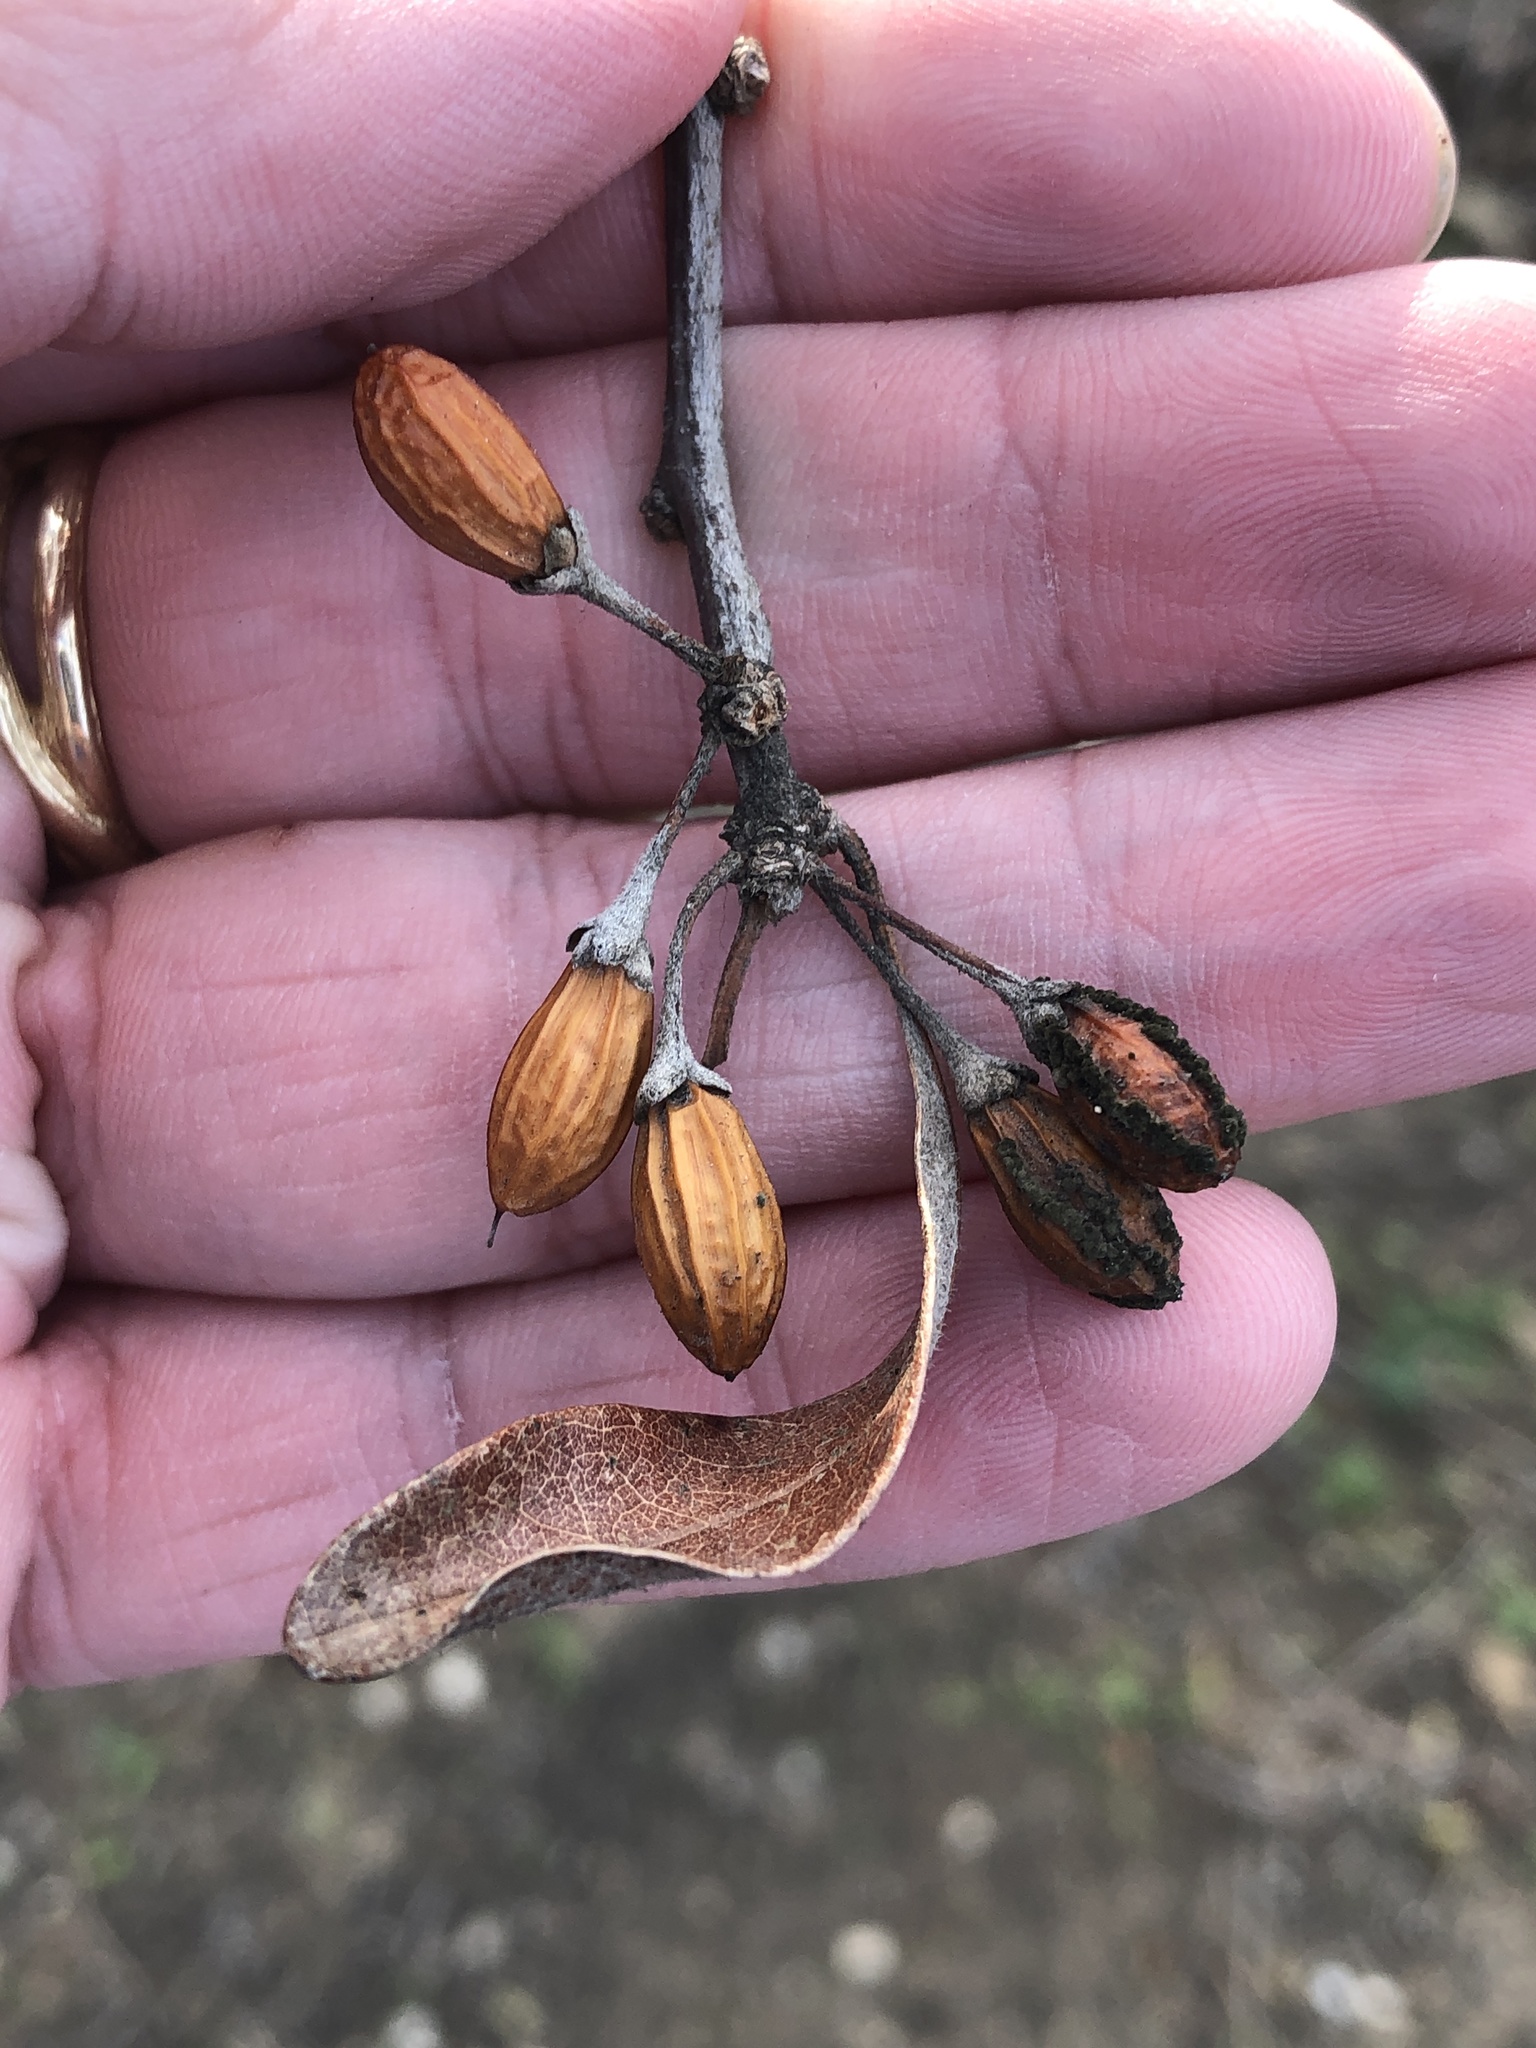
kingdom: Plantae
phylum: Tracheophyta
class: Magnoliopsida
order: Ericales
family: Sapotaceae
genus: Sideroxylon
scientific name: Sideroxylon lanuginosum
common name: Chittamwood
